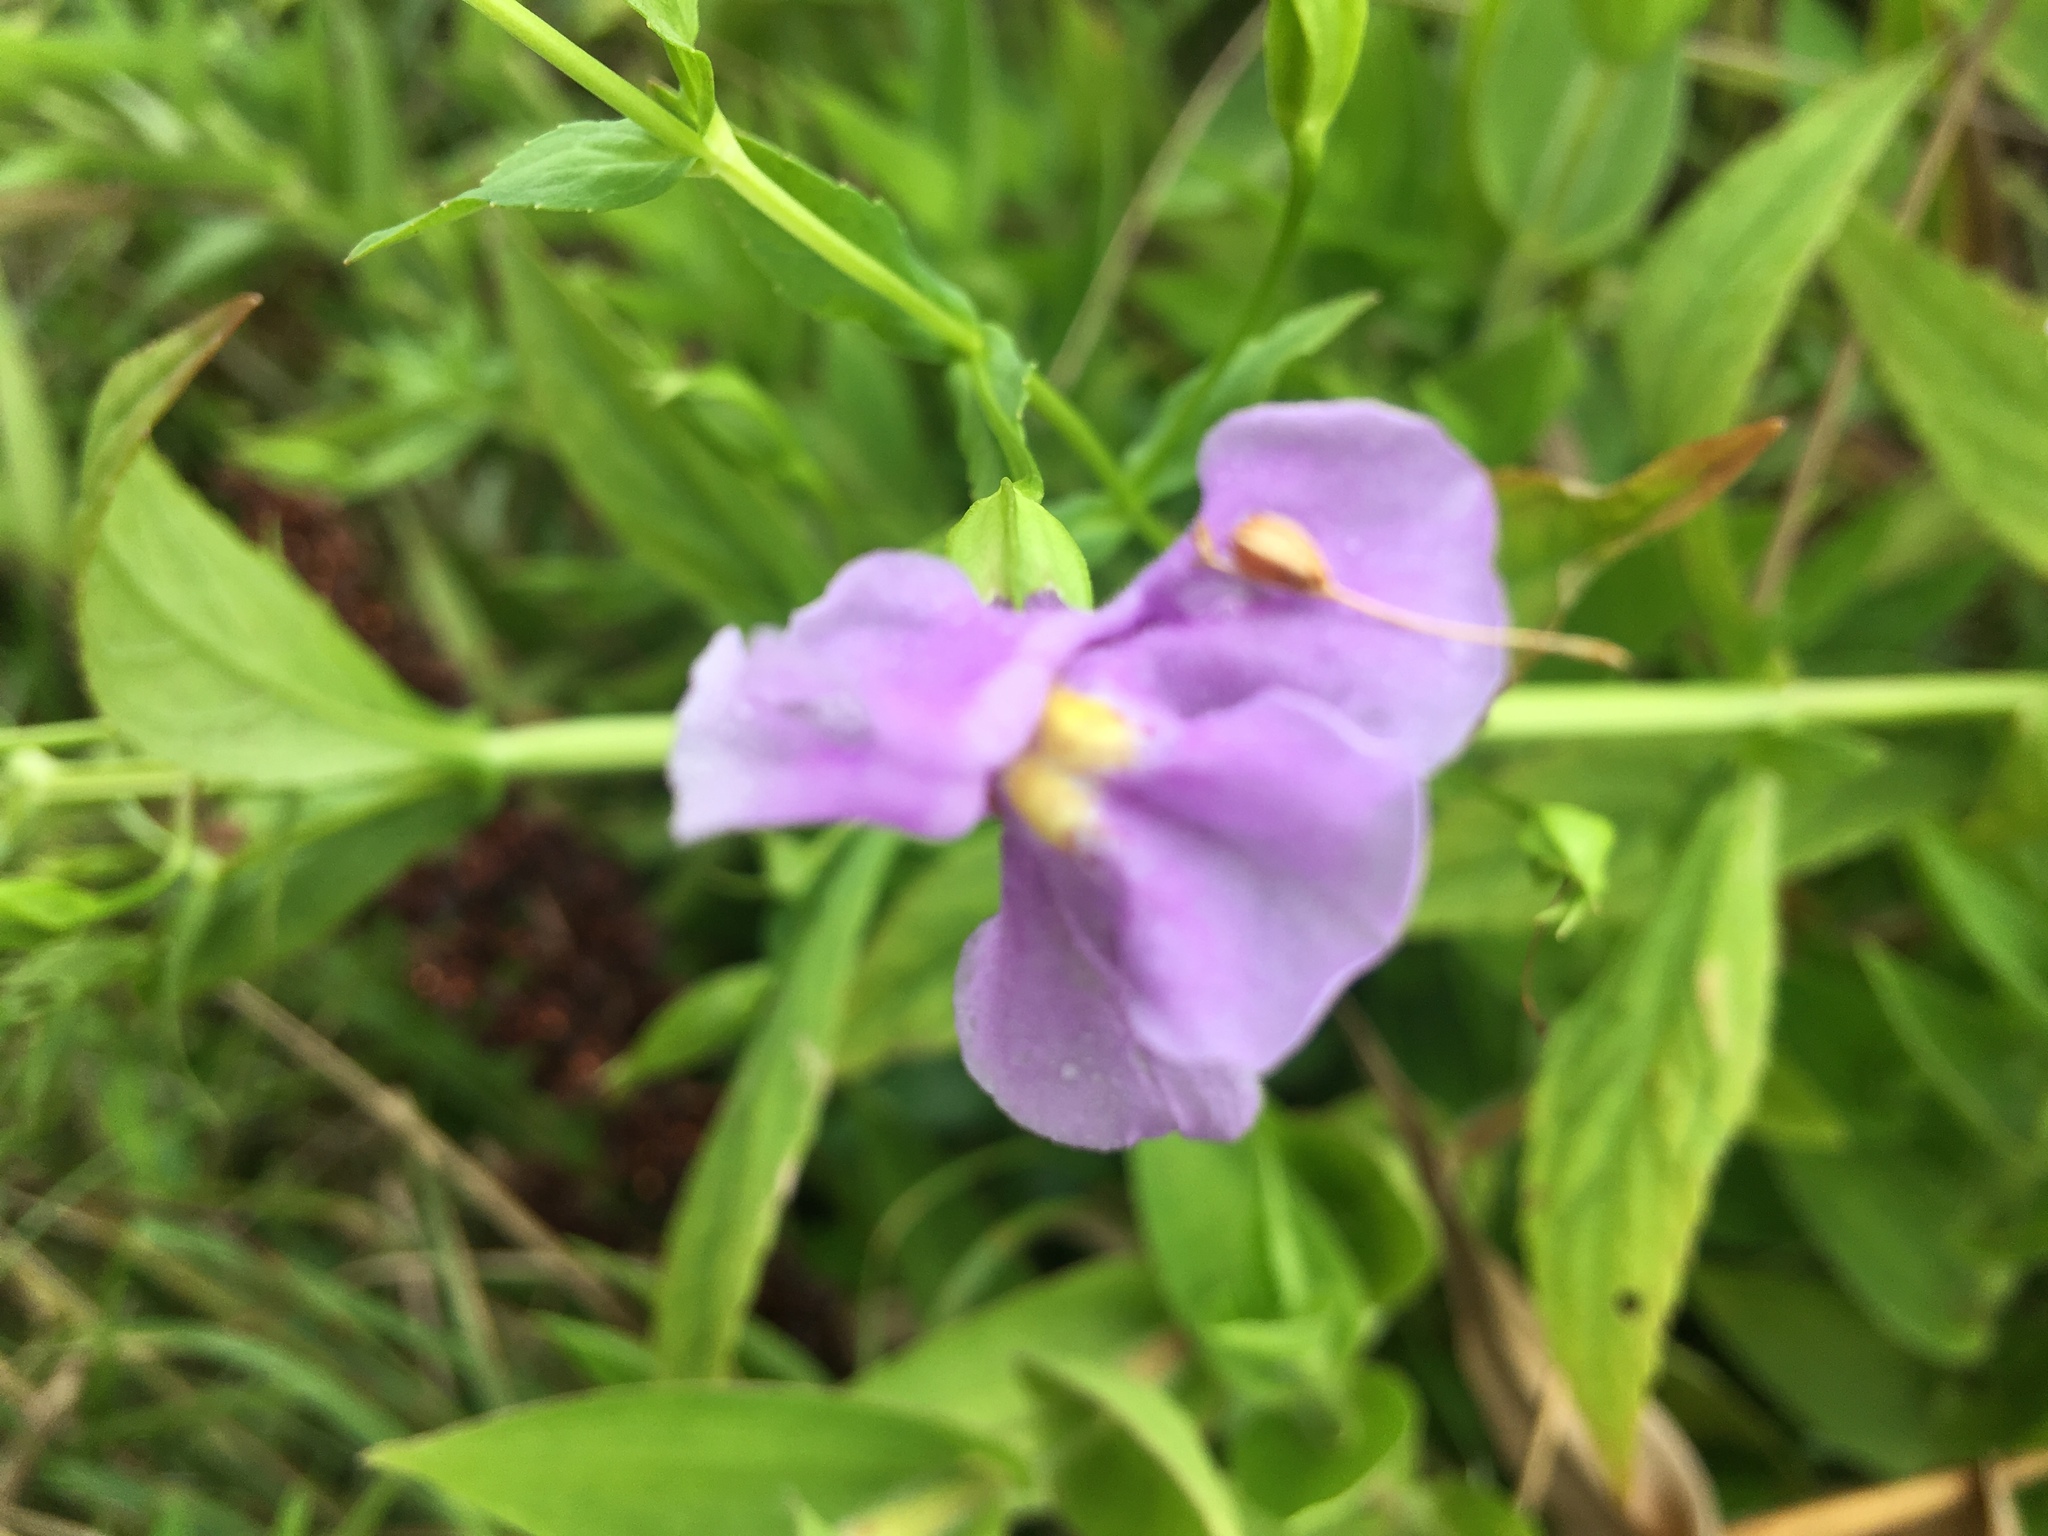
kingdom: Plantae
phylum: Tracheophyta
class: Magnoliopsida
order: Lamiales
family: Phrymaceae
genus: Mimulus
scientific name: Mimulus ringens
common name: Allegheny monkeyflower
